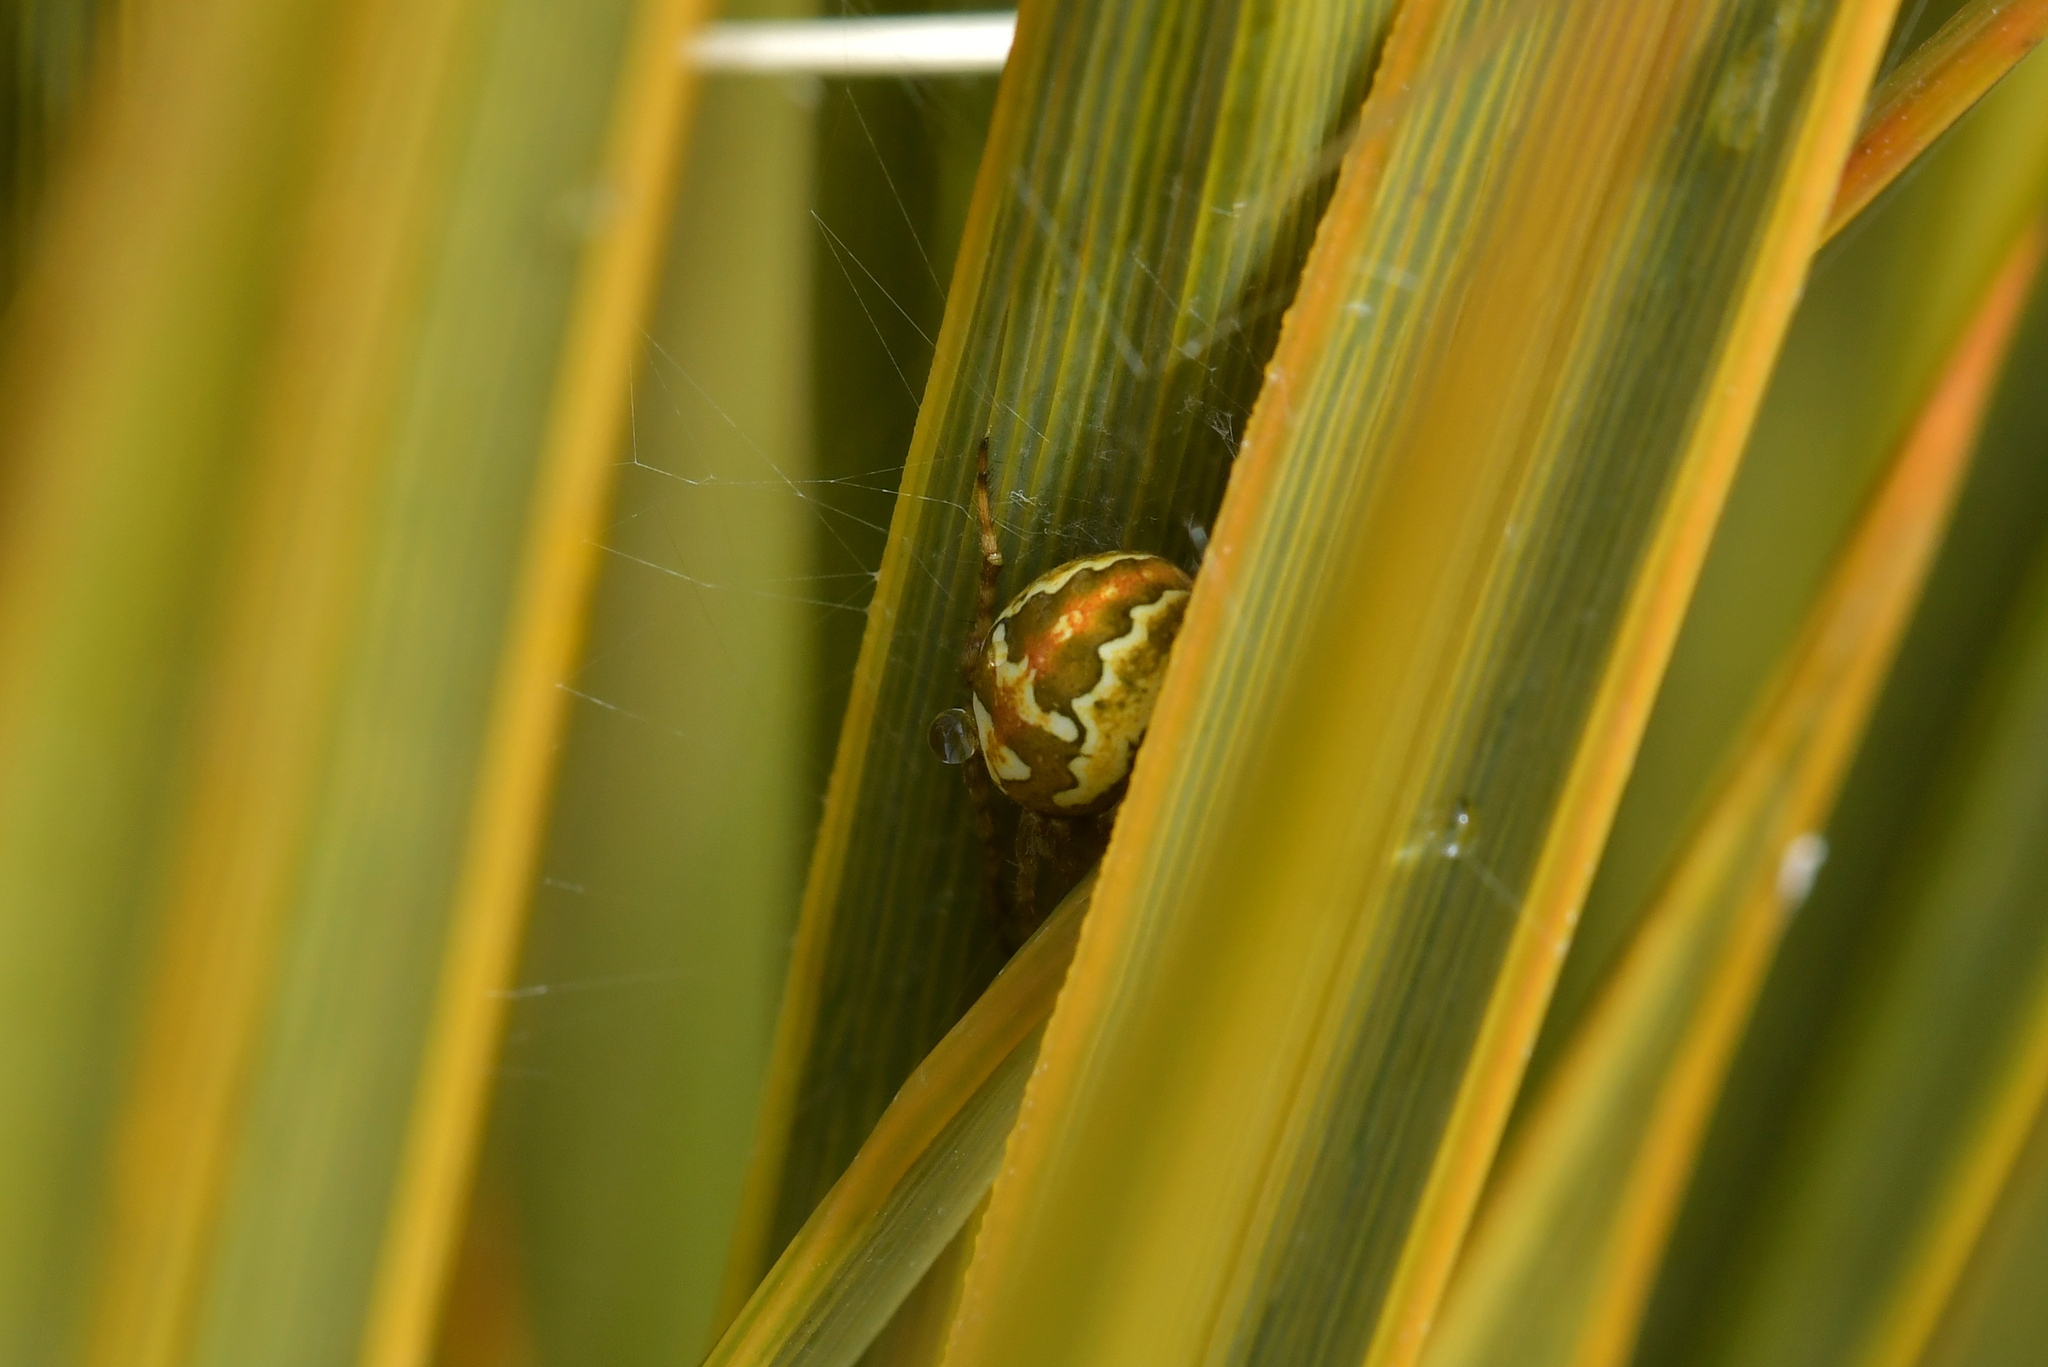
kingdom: Animalia
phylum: Arthropoda
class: Arachnida
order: Araneae
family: Araneidae
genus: Colaranea
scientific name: Colaranea verutum
